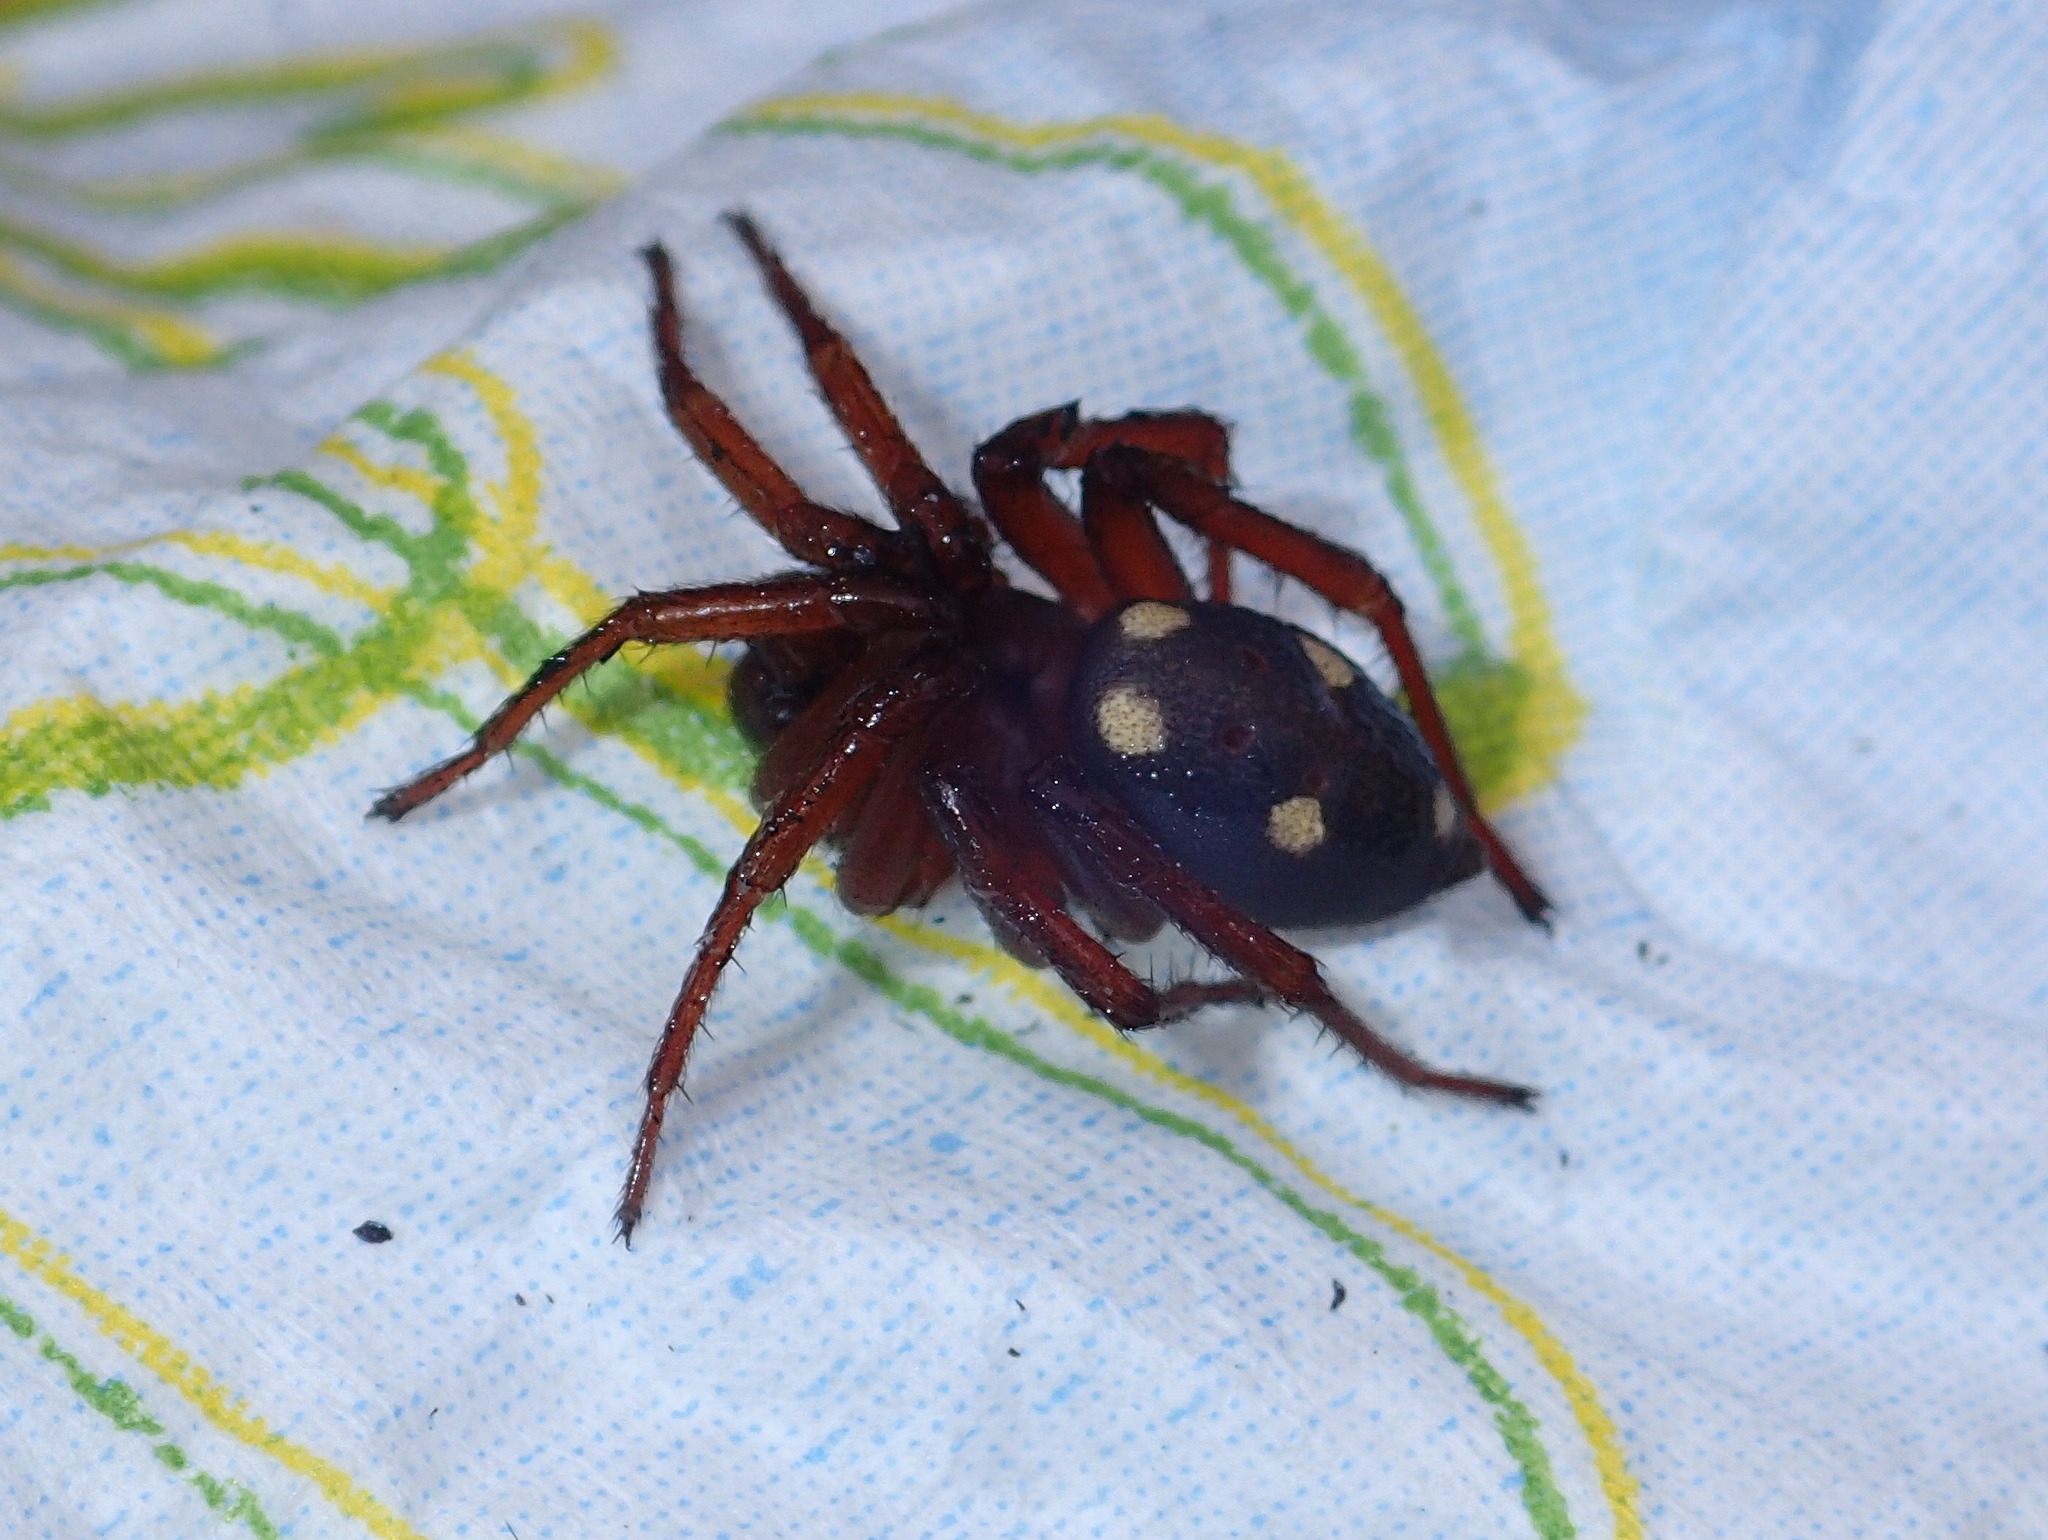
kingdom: Animalia
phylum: Arthropoda
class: Arachnida
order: Araneae
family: Oecobiidae
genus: Uroctea
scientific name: Uroctea durandi
